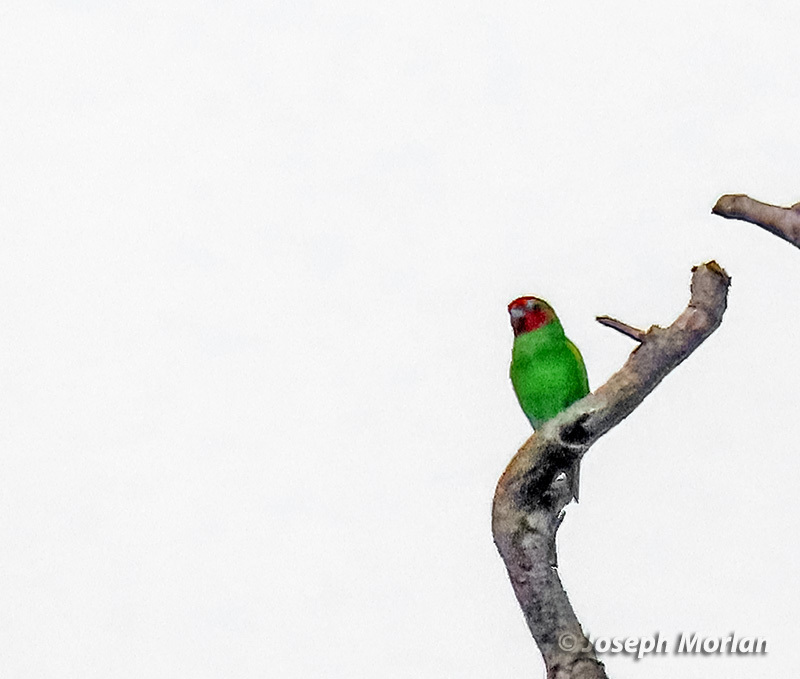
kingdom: Animalia
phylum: Chordata
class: Aves
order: Psittaciformes
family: Psittacidae
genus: Geoffroyus
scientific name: Geoffroyus geoffroyi
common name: Red-cheeked parrot
